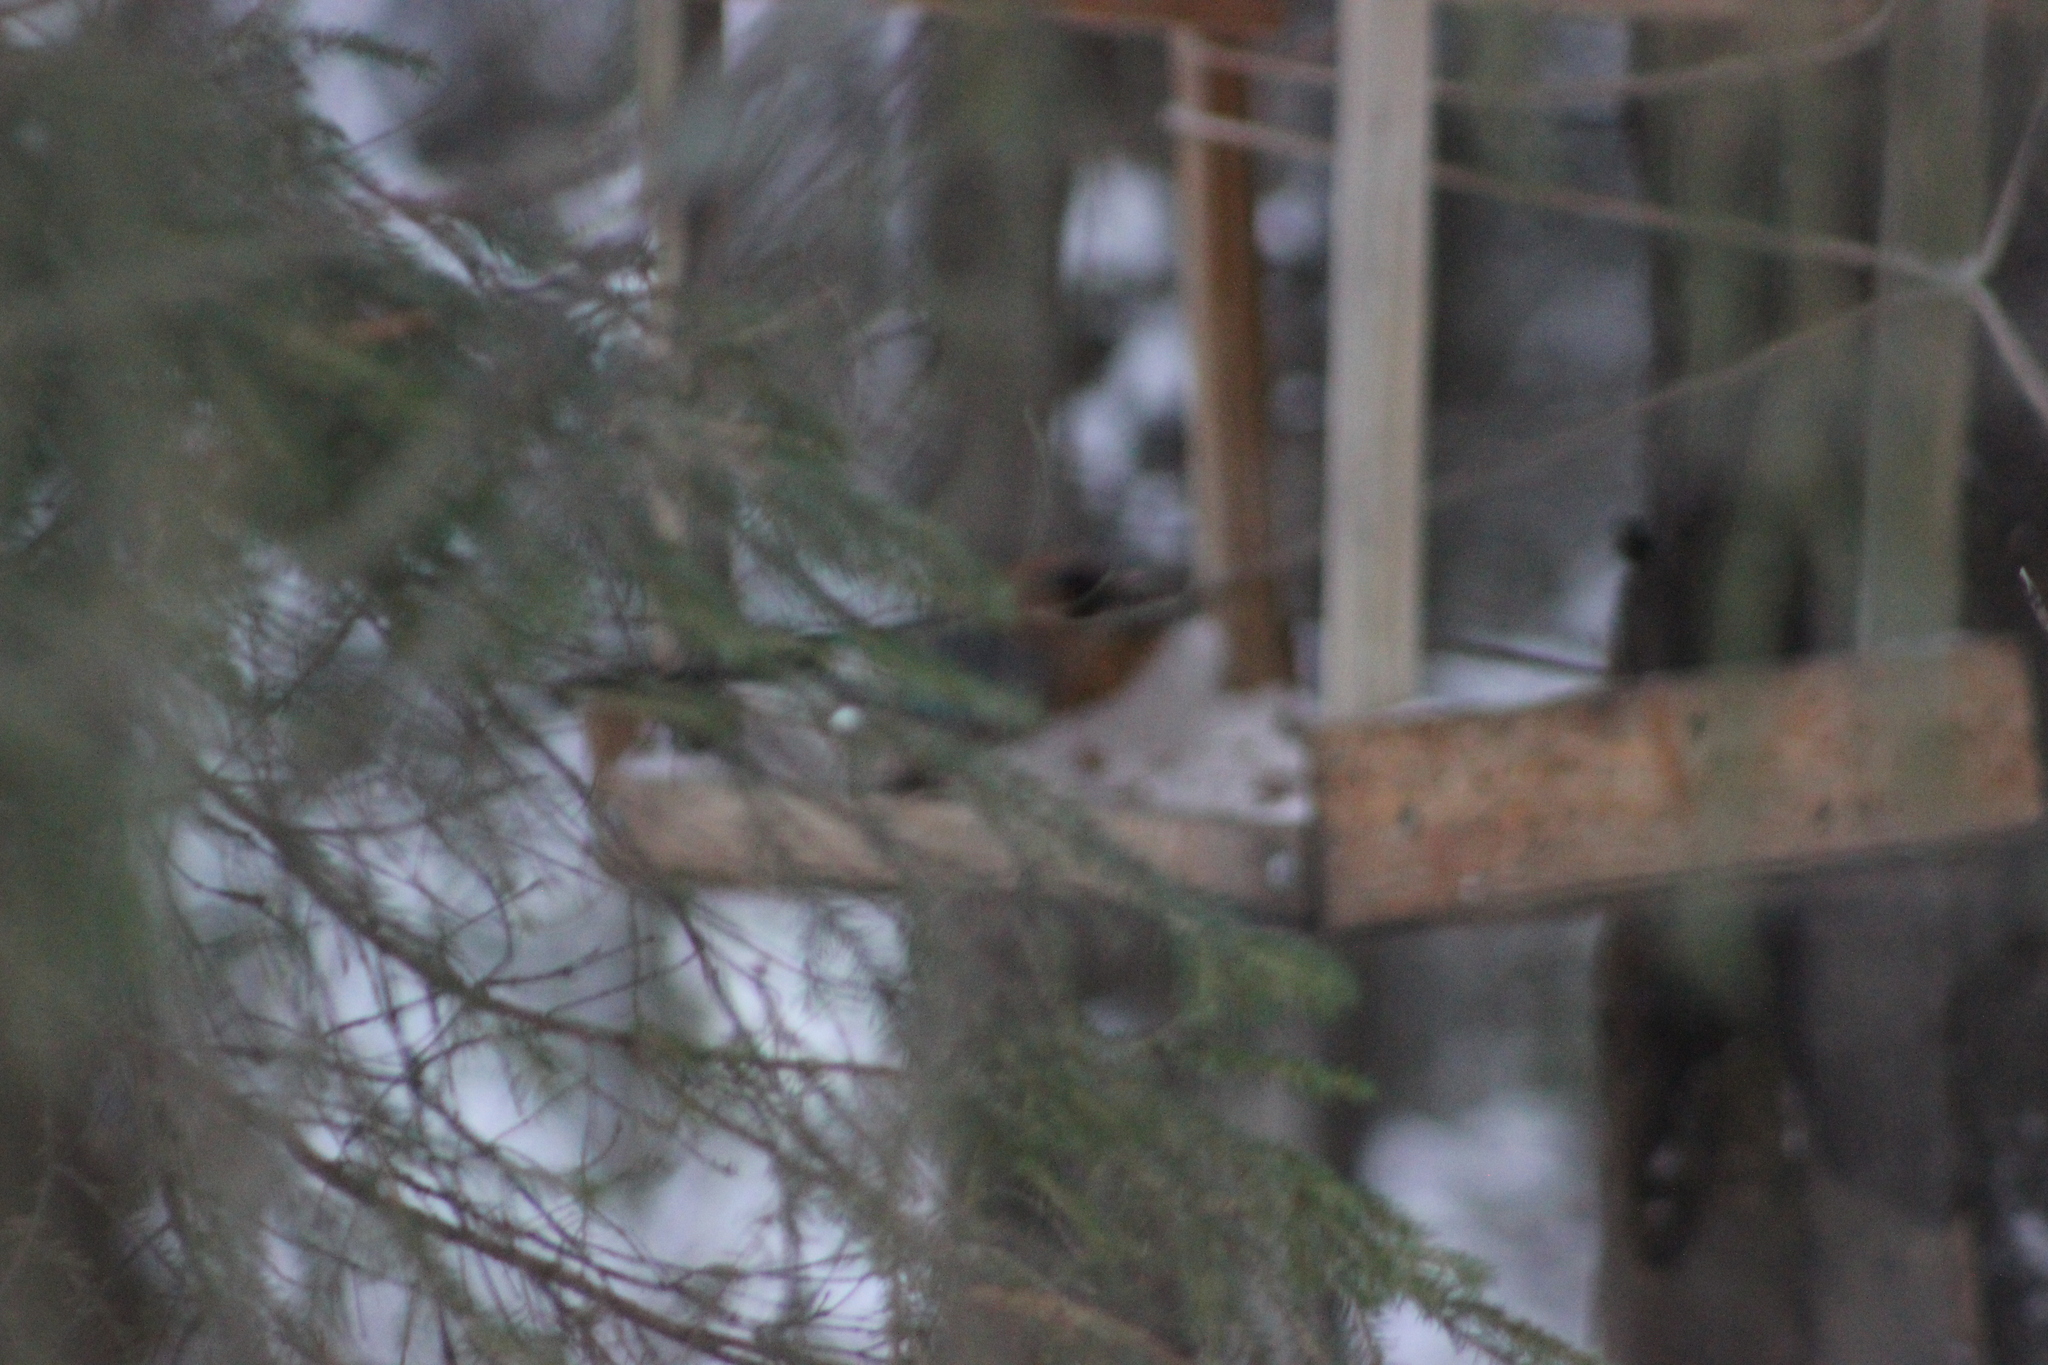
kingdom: Animalia
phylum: Chordata
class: Aves
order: Passeriformes
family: Corvidae
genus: Garrulus
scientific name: Garrulus glandarius
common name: Eurasian jay
